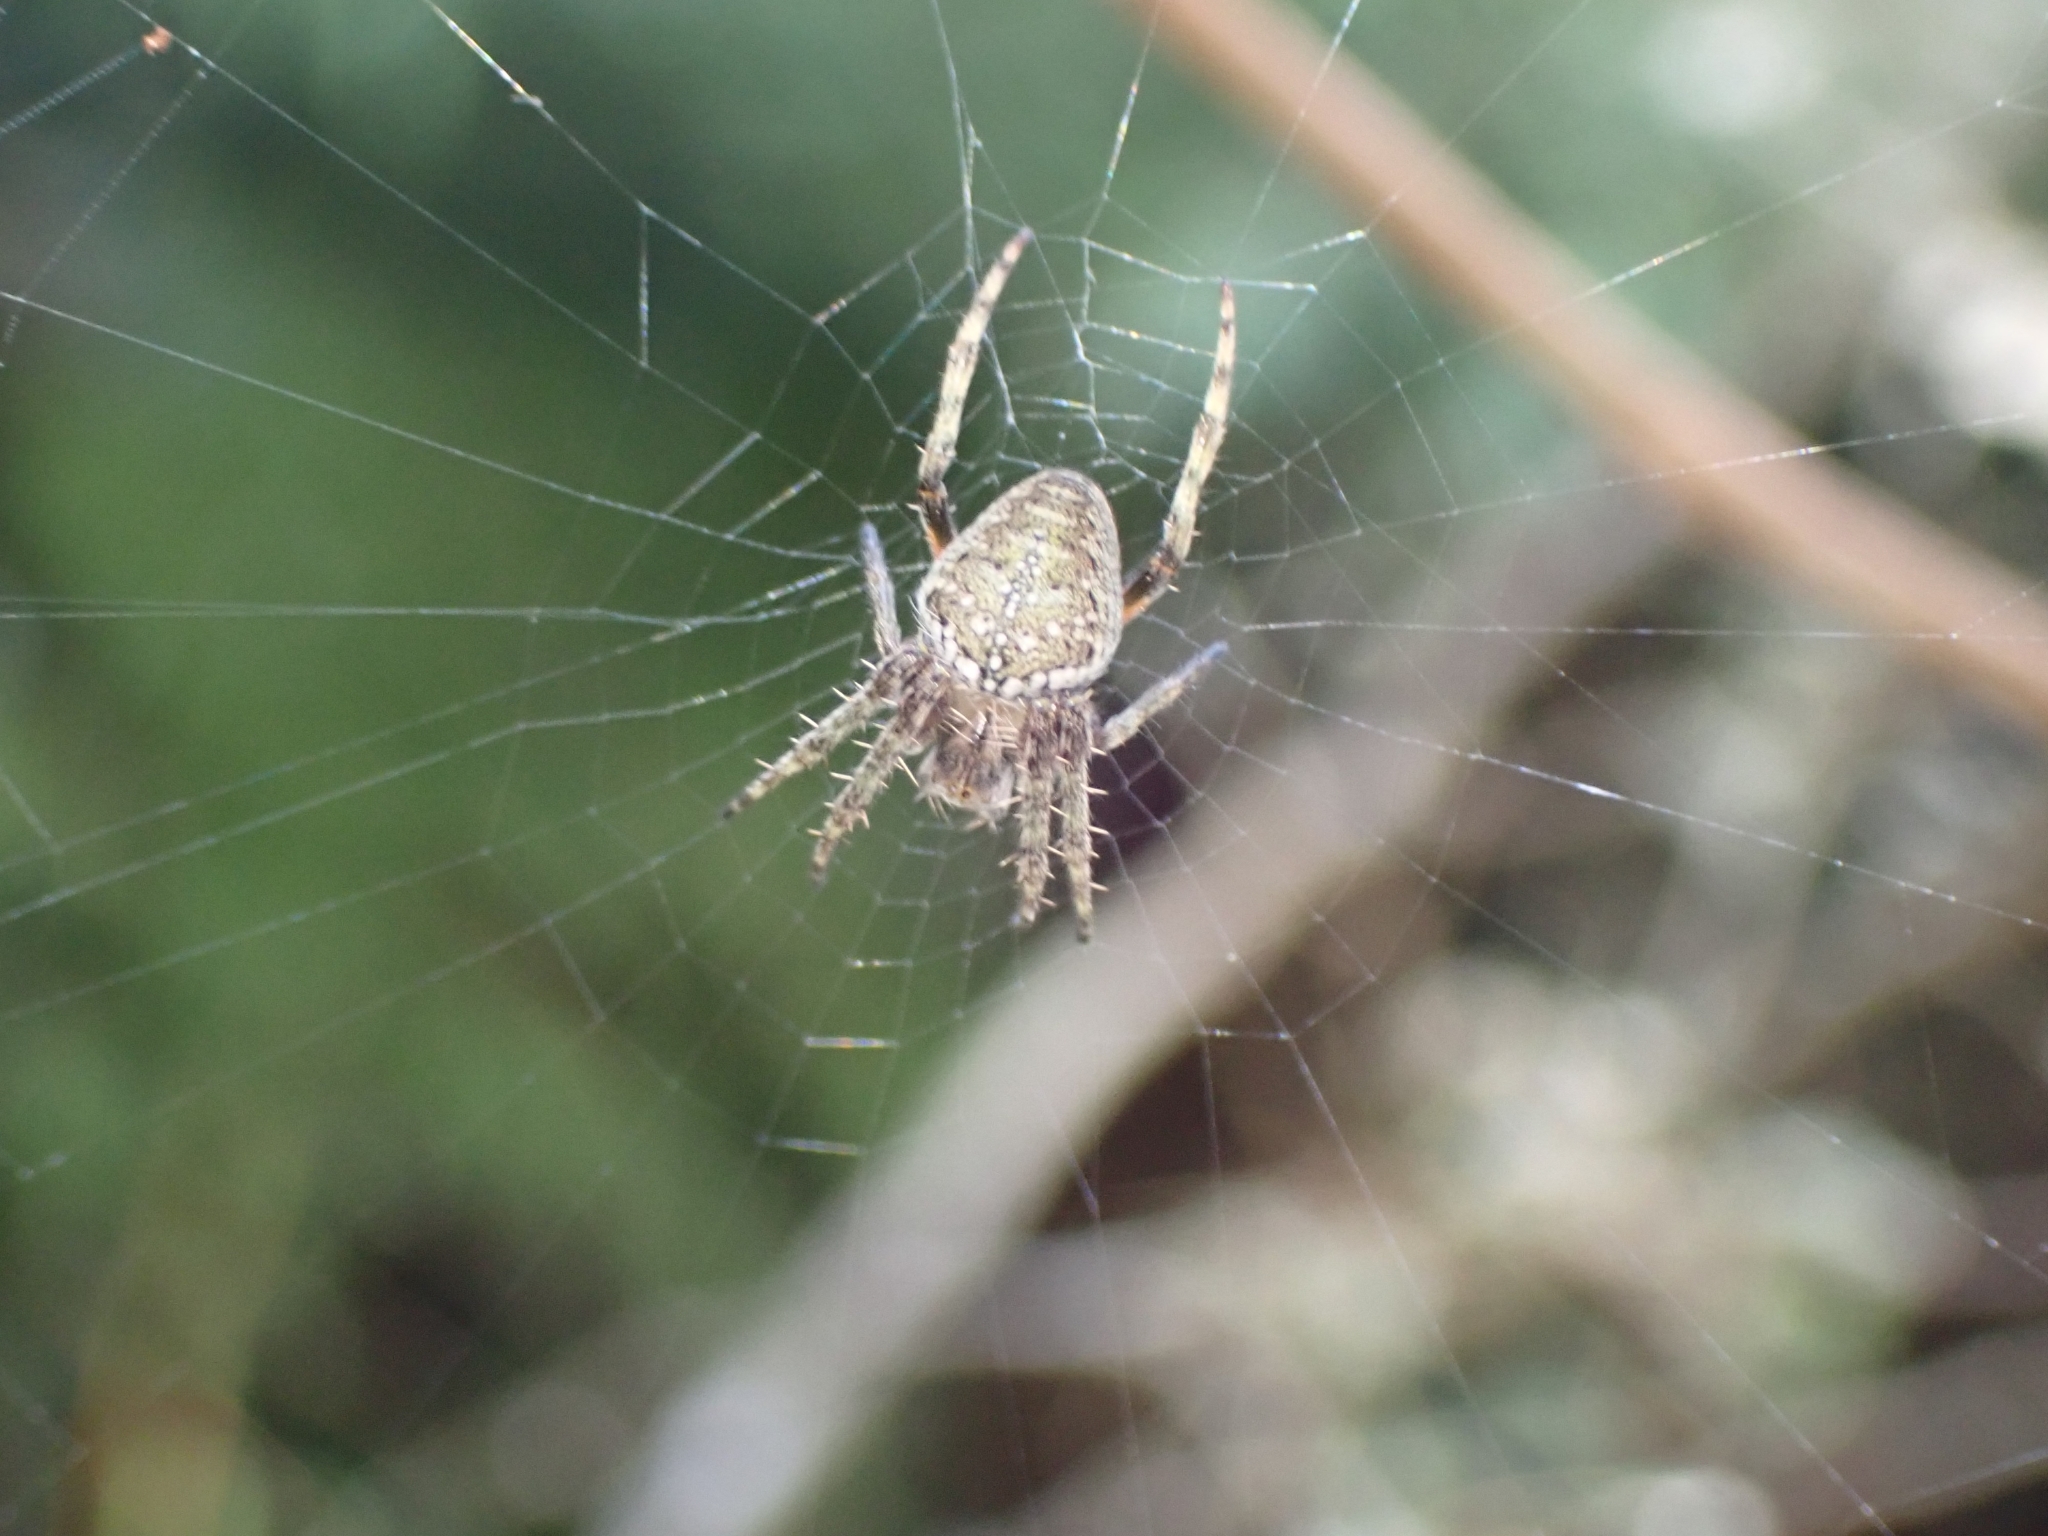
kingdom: Animalia
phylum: Arthropoda
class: Arachnida
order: Araneae
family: Araneidae
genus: Zealaranea
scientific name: Zealaranea crassa
